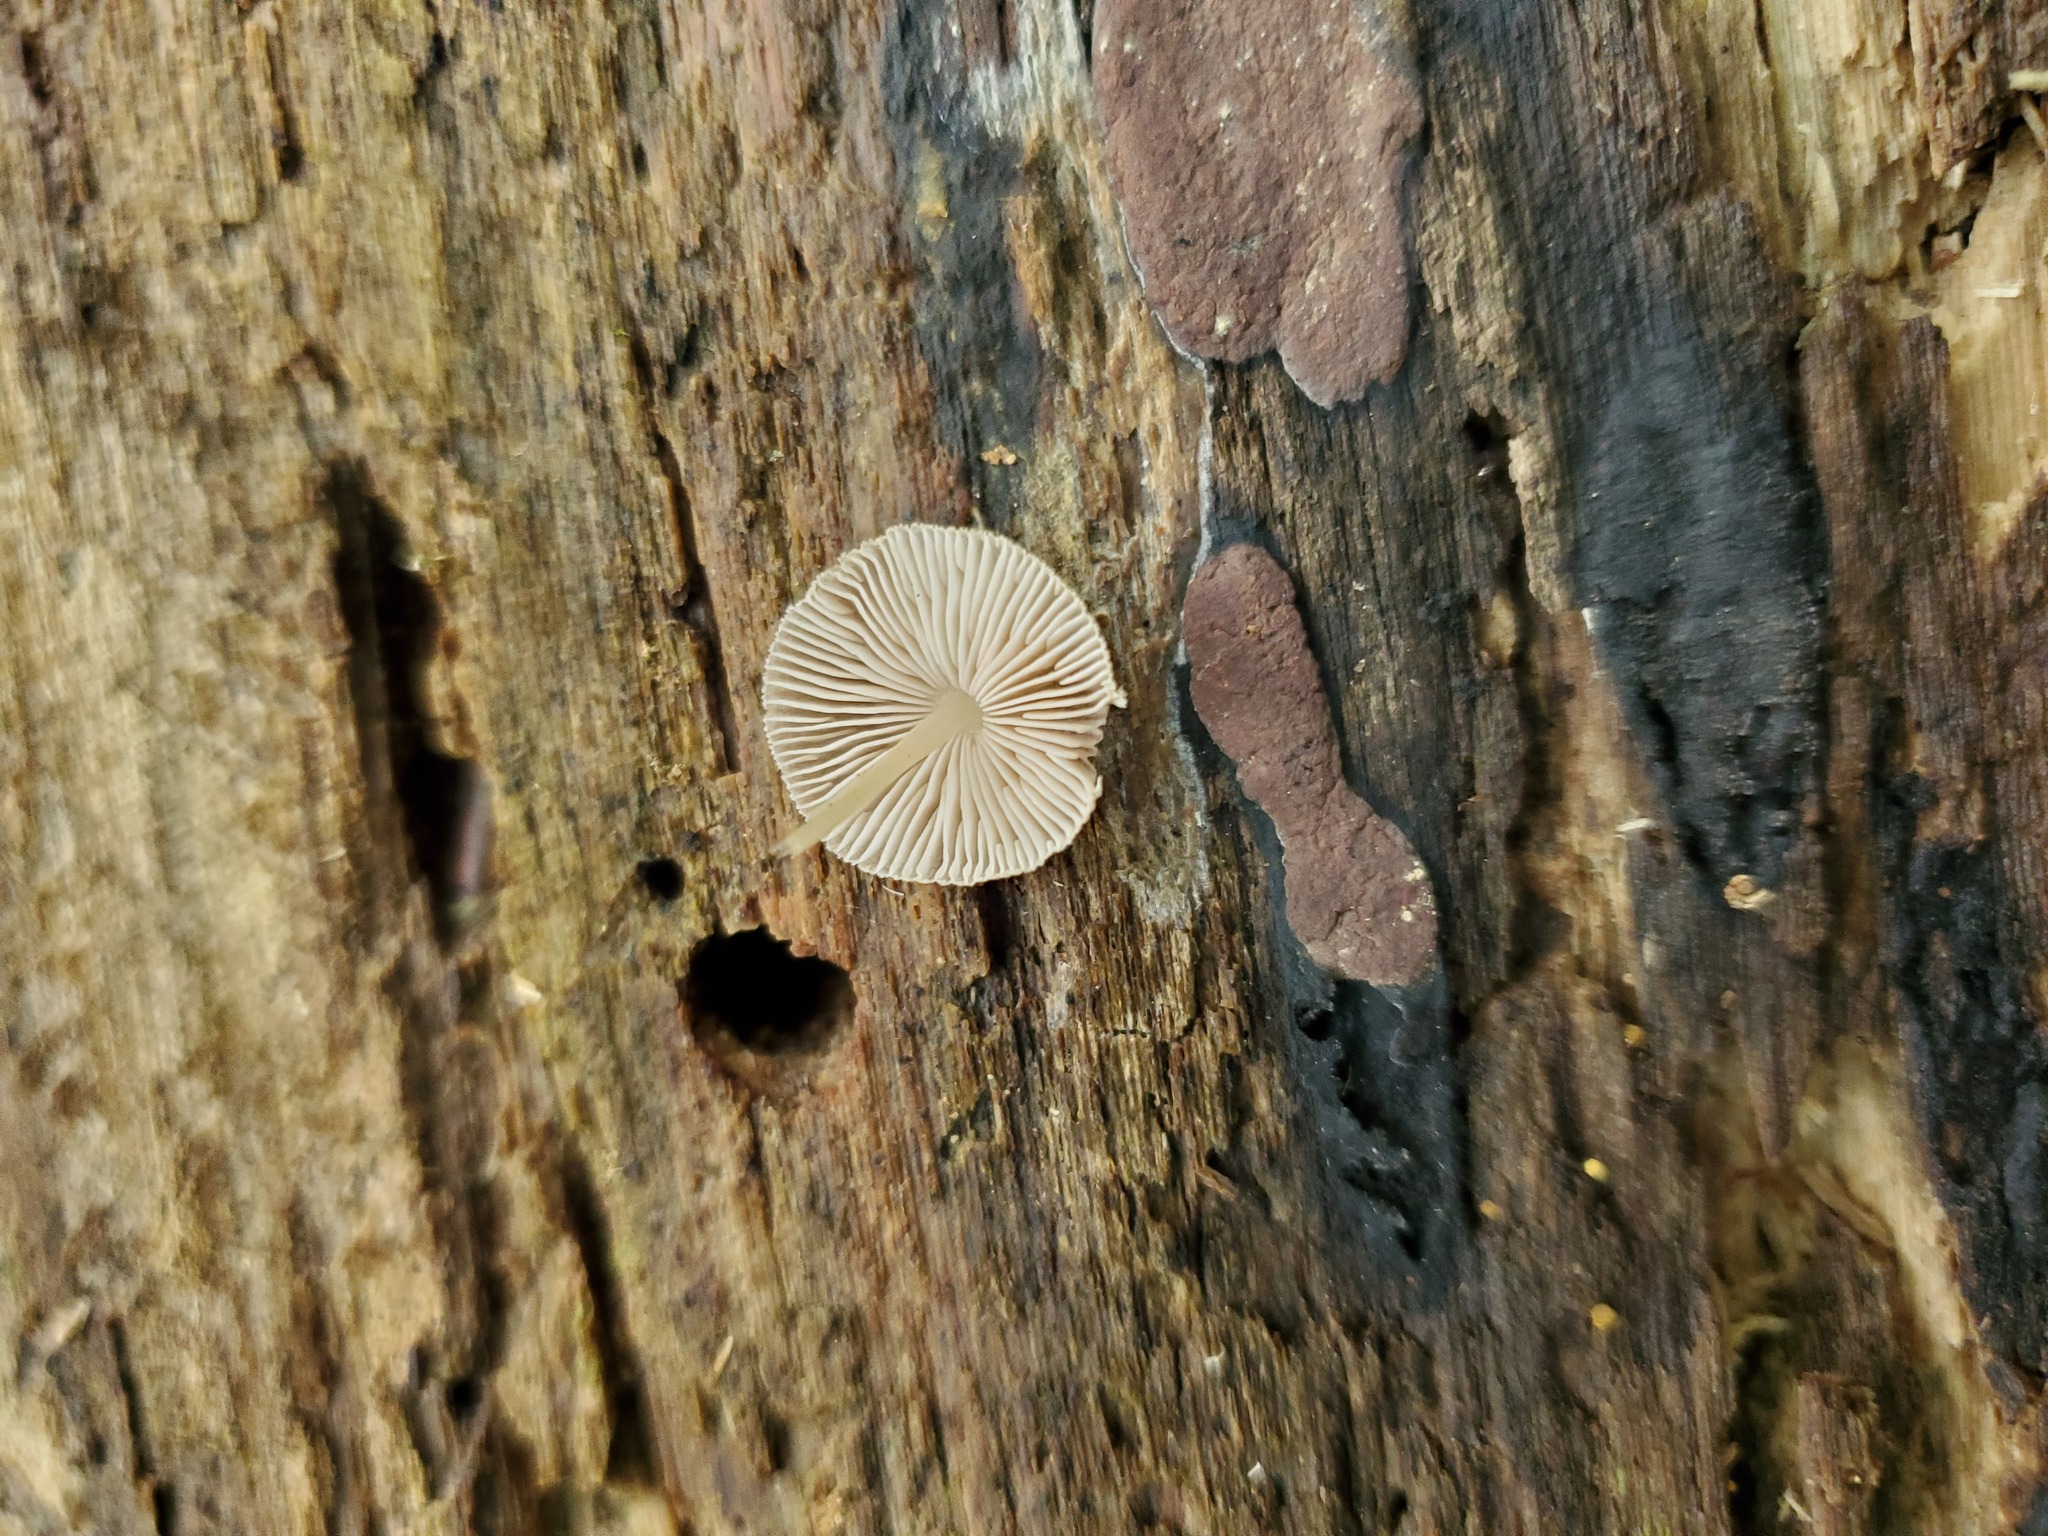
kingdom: Fungi
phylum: Basidiomycota
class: Agaricomycetes
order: Agaricales
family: Pluteaceae
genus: Pluteus
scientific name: Pluteus longistriatus
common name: Pleated pluteus
